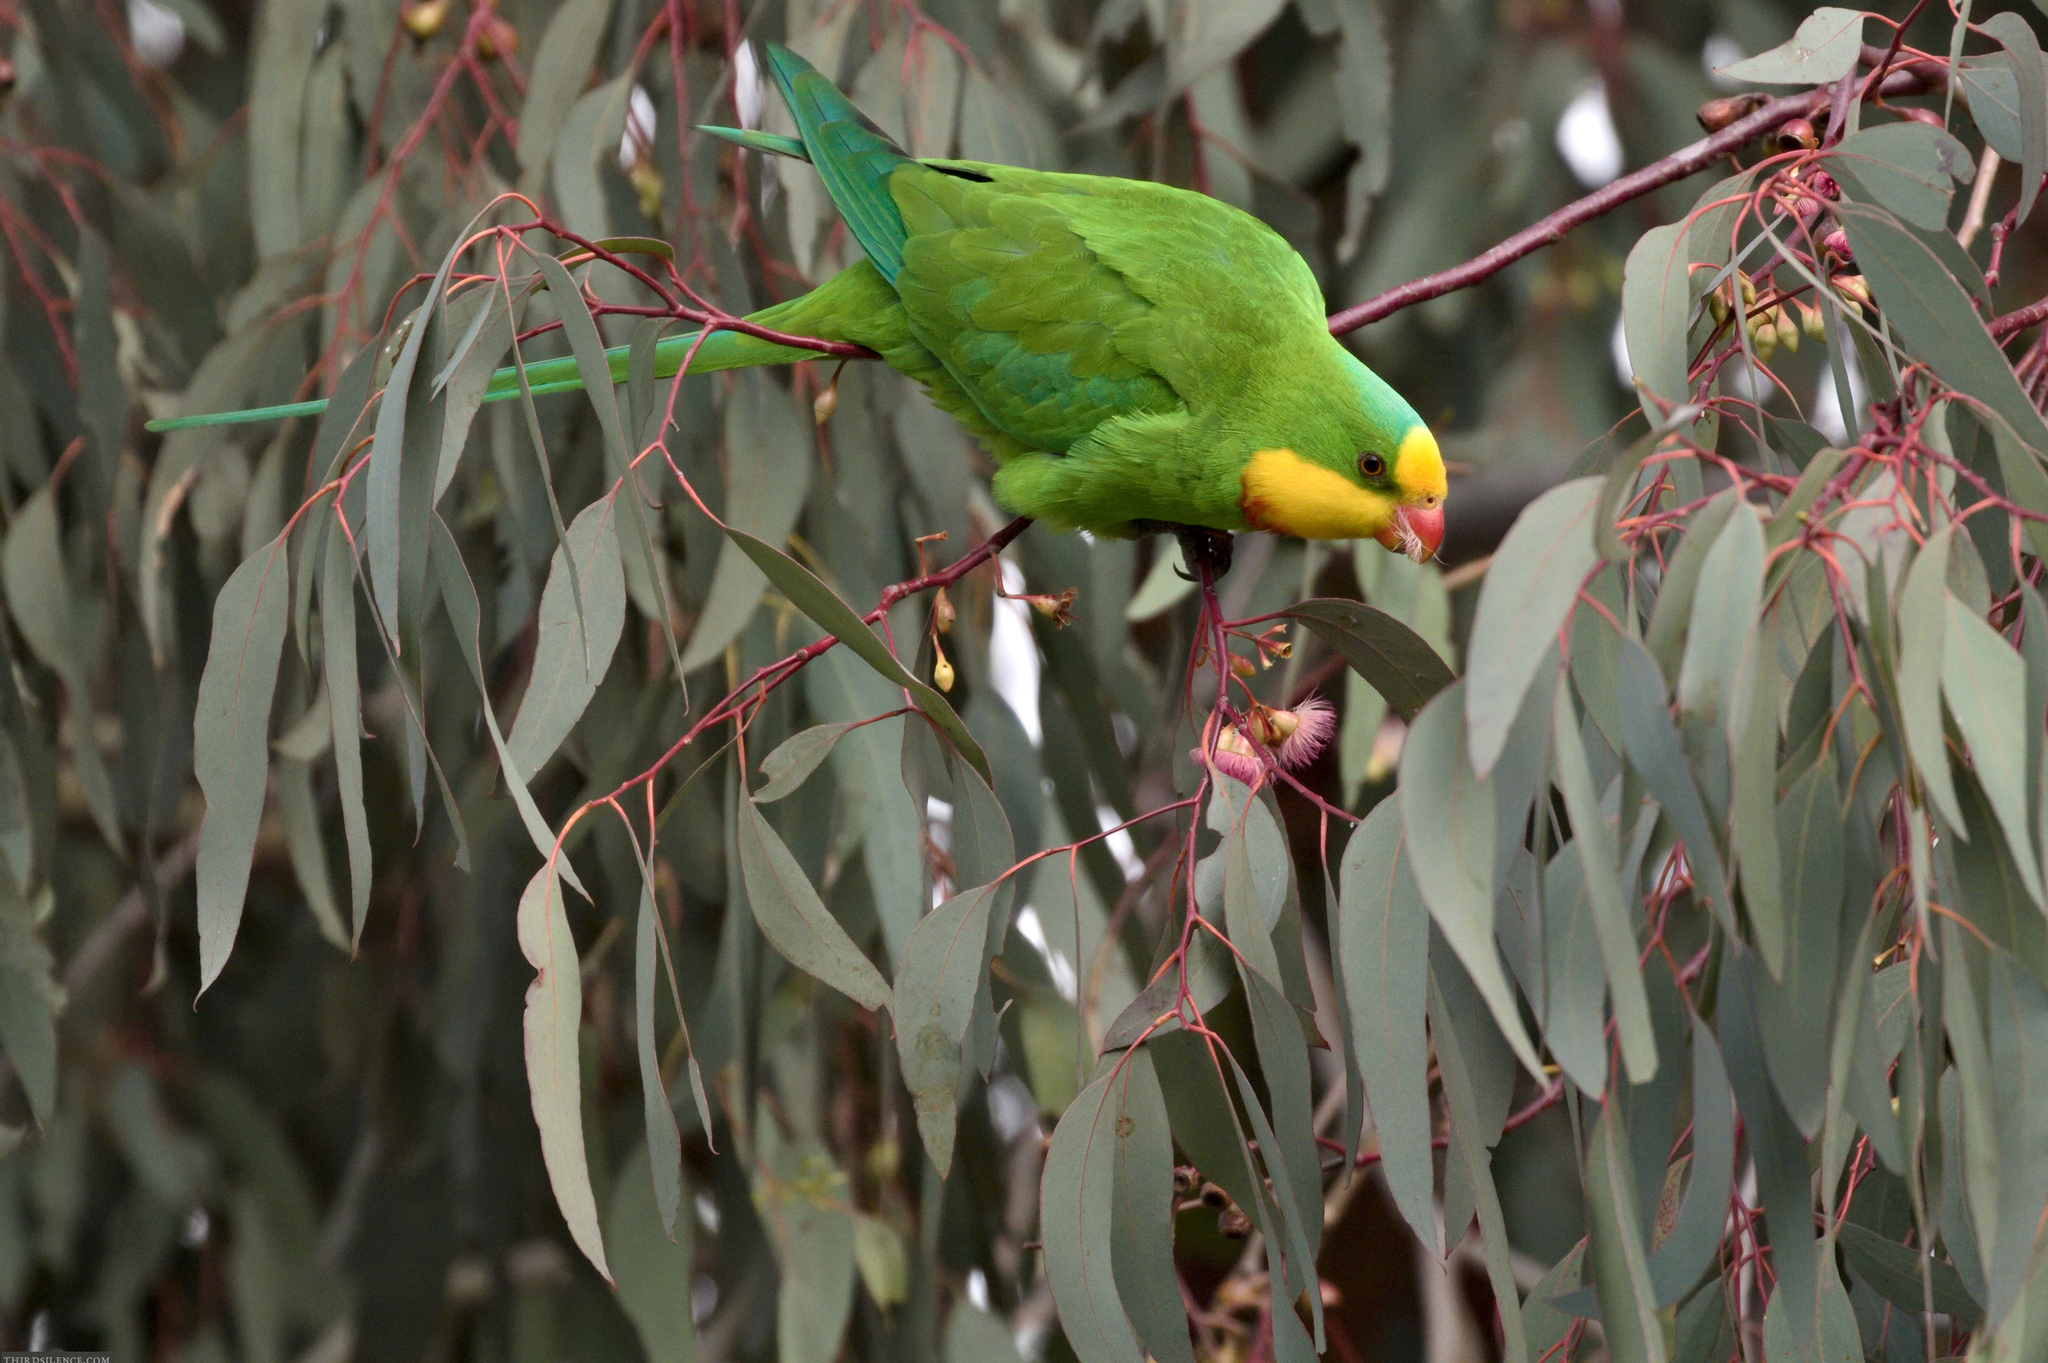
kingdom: Animalia
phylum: Chordata
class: Aves
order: Psittaciformes
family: Psittacidae
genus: Polytelis
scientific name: Polytelis swainsonii
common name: Superb parrot
